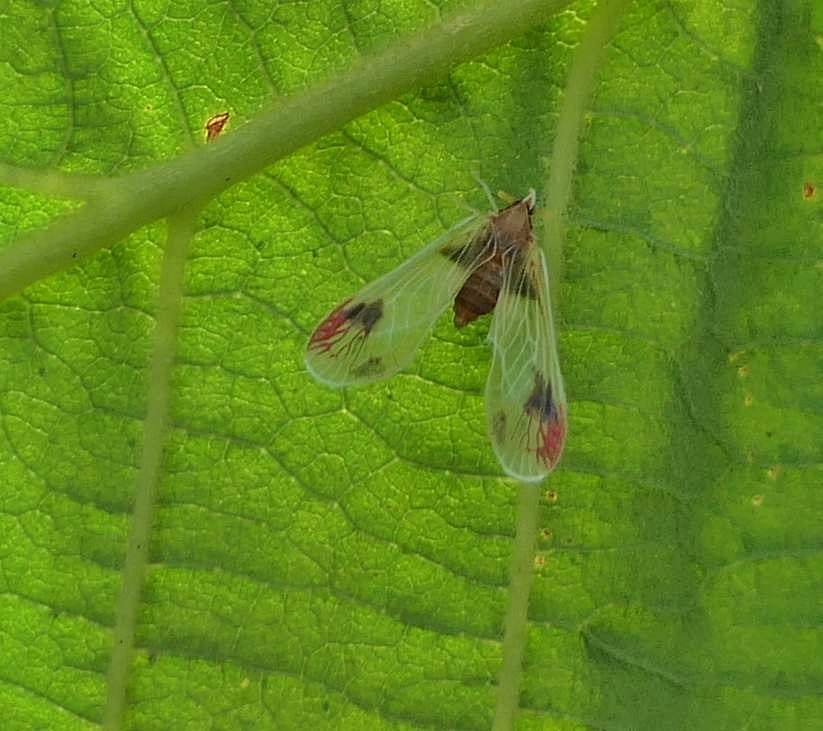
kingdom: Animalia
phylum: Arthropoda
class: Insecta
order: Hemiptera
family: Derbidae
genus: Anotia
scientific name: Anotia uhleri
